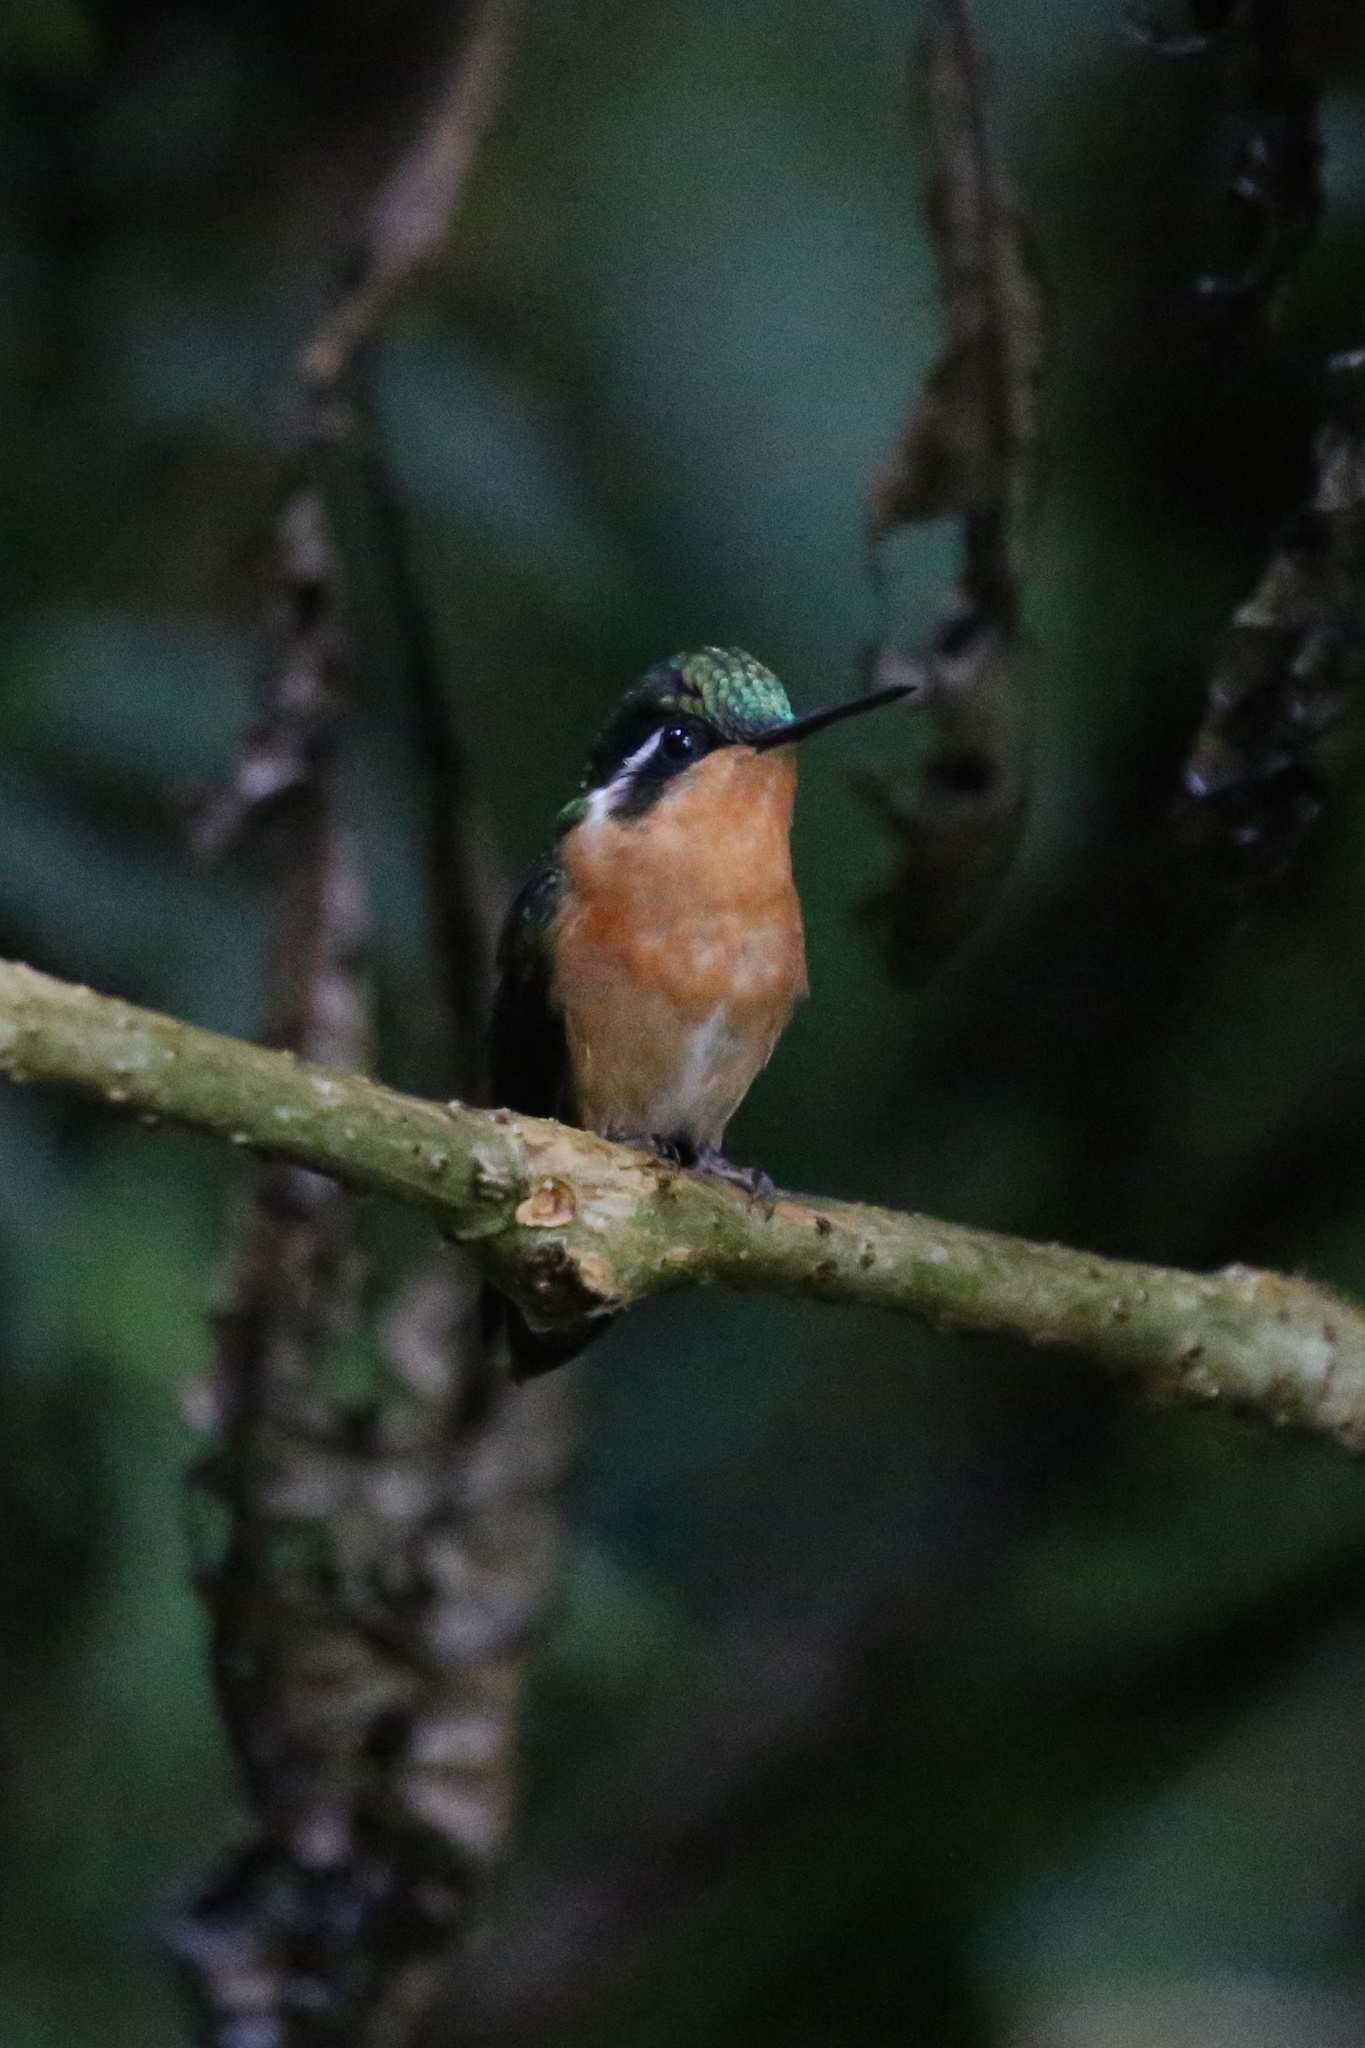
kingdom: Animalia
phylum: Chordata
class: Aves
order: Apodiformes
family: Trochilidae
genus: Lampornis
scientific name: Lampornis castaneoventris
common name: White-throated mountain-gem
